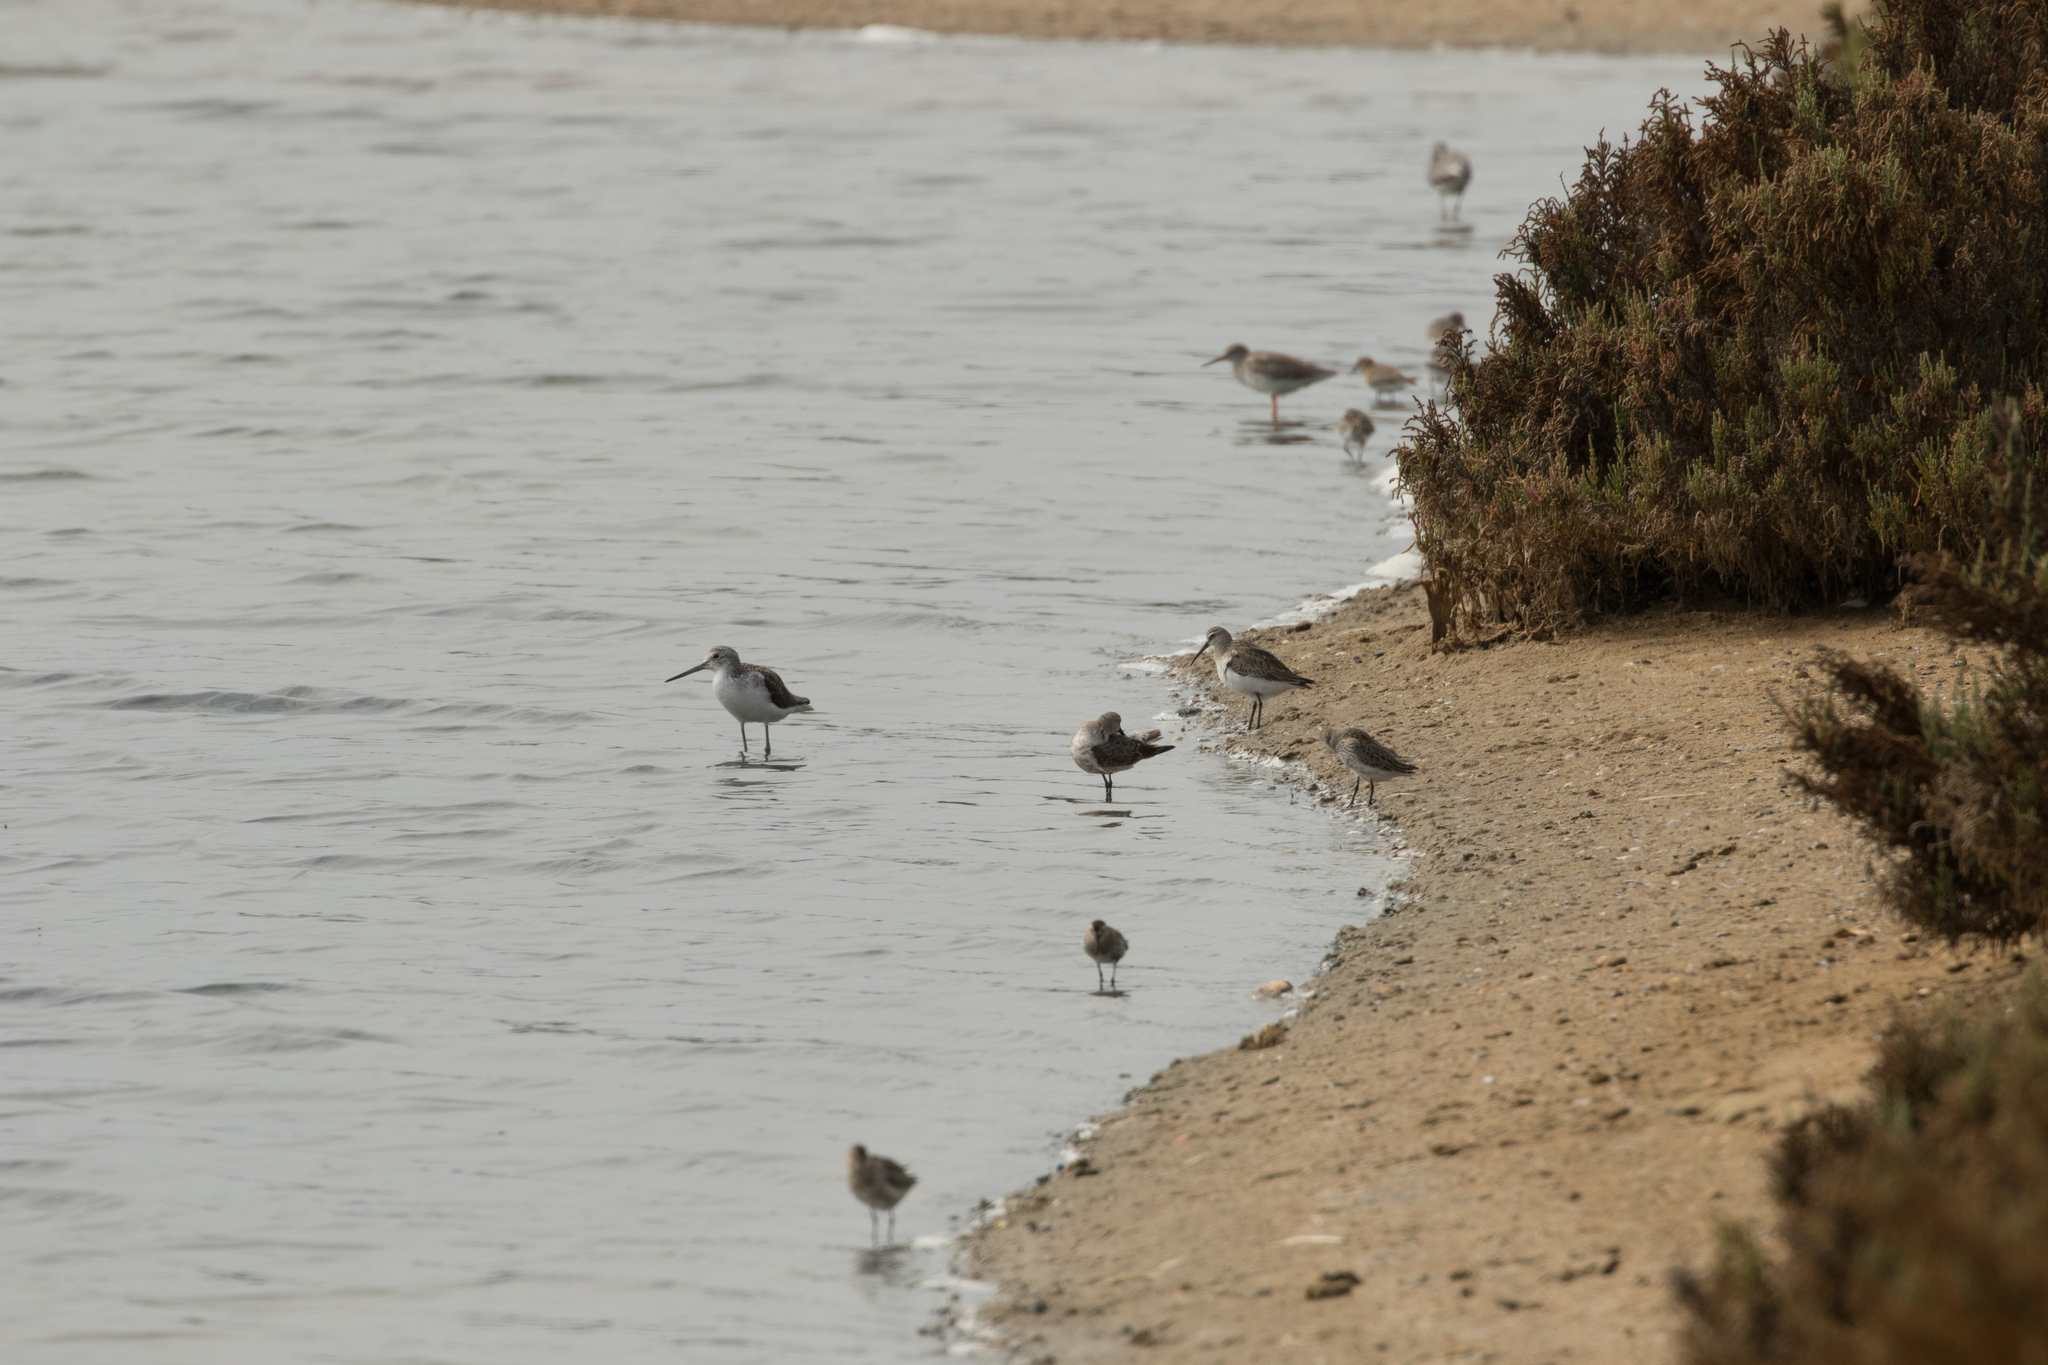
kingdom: Animalia
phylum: Chordata
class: Aves
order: Charadriiformes
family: Scolopacidae
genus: Tringa
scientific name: Tringa nebularia
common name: Common greenshank
